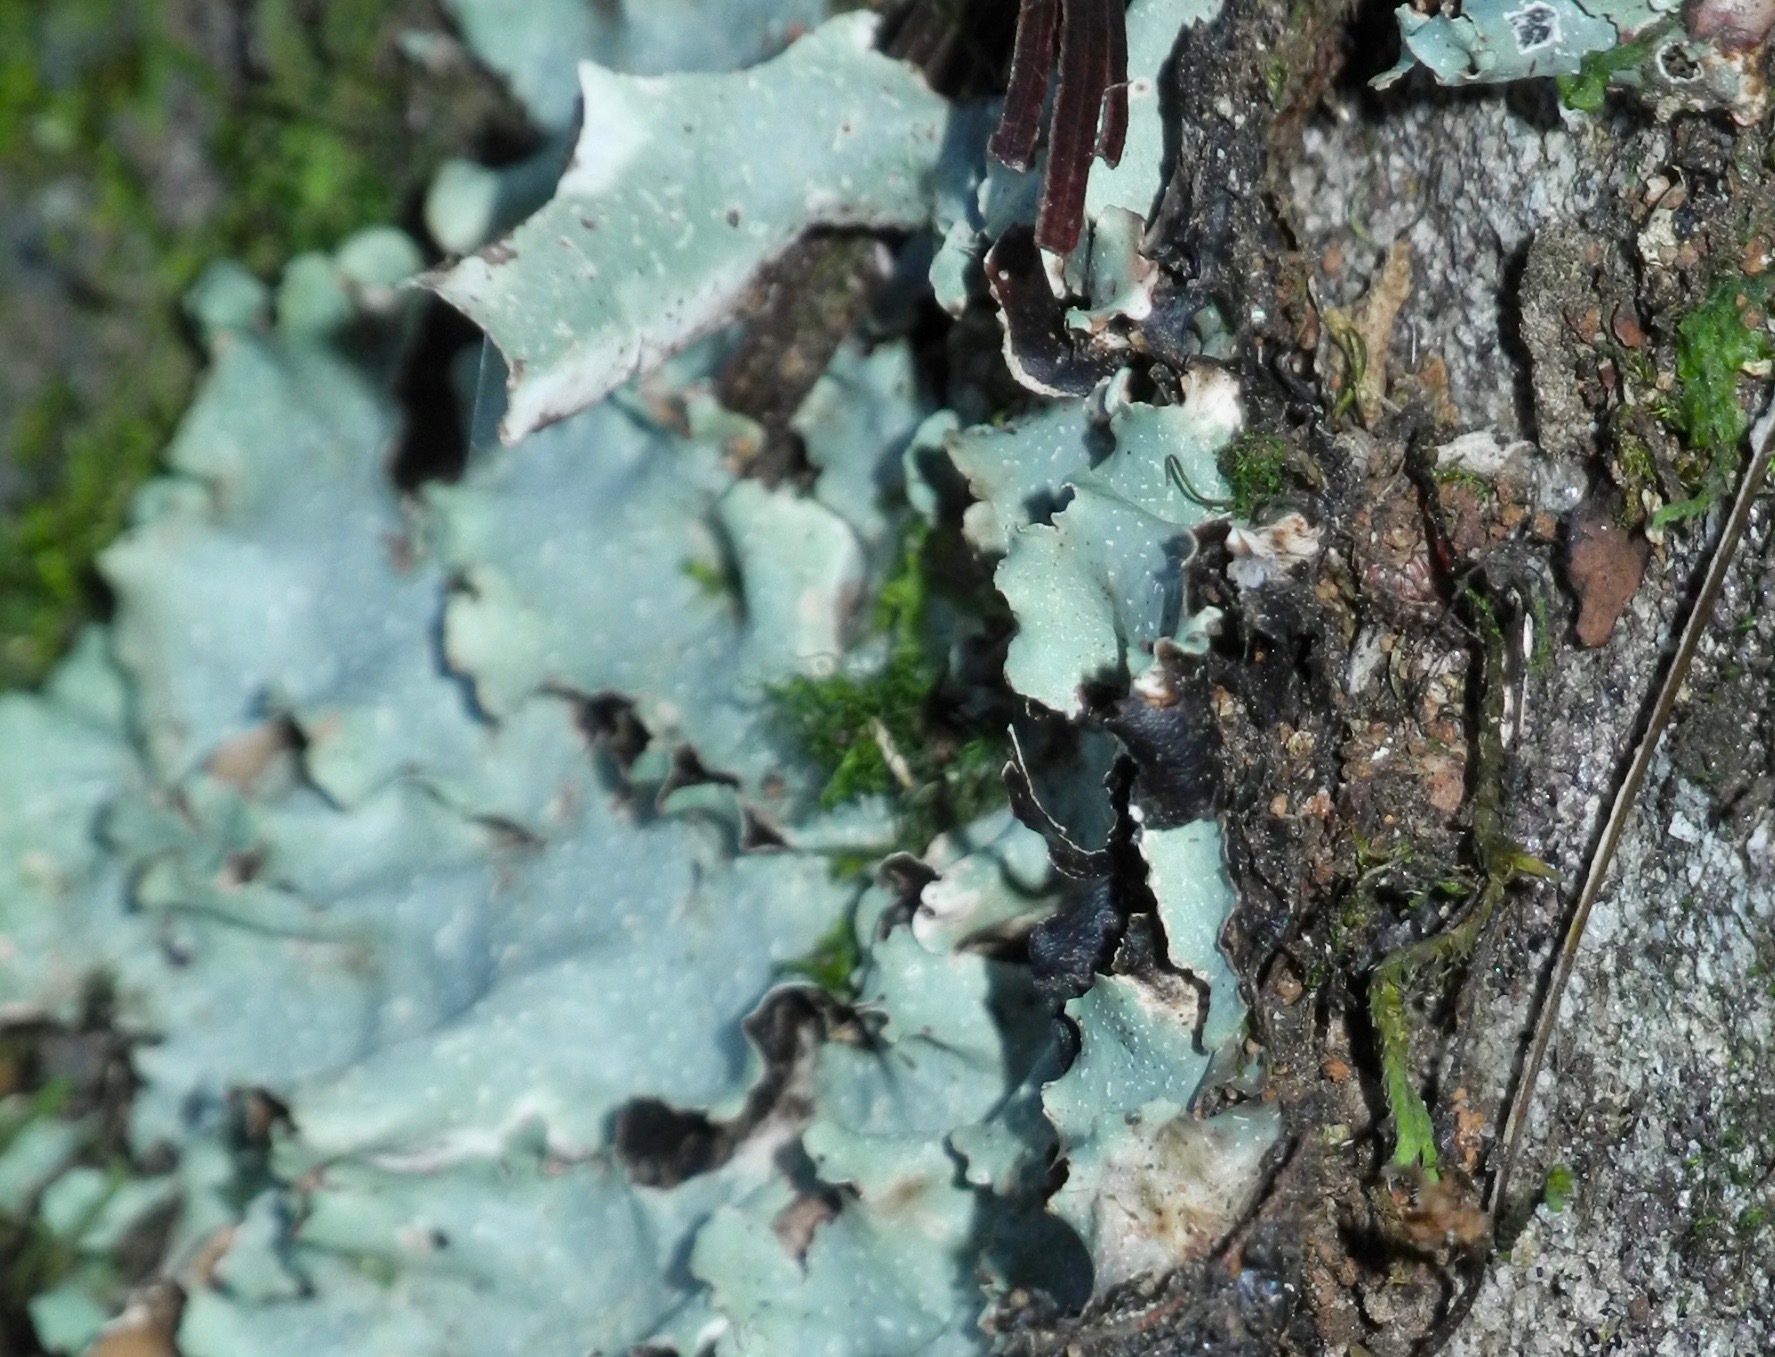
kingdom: Fungi
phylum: Ascomycota
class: Lecanoromycetes
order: Lecanorales
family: Parmeliaceae
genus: Cetrelia
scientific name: Cetrelia chicitae
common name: Chicita's sea storm lichen
